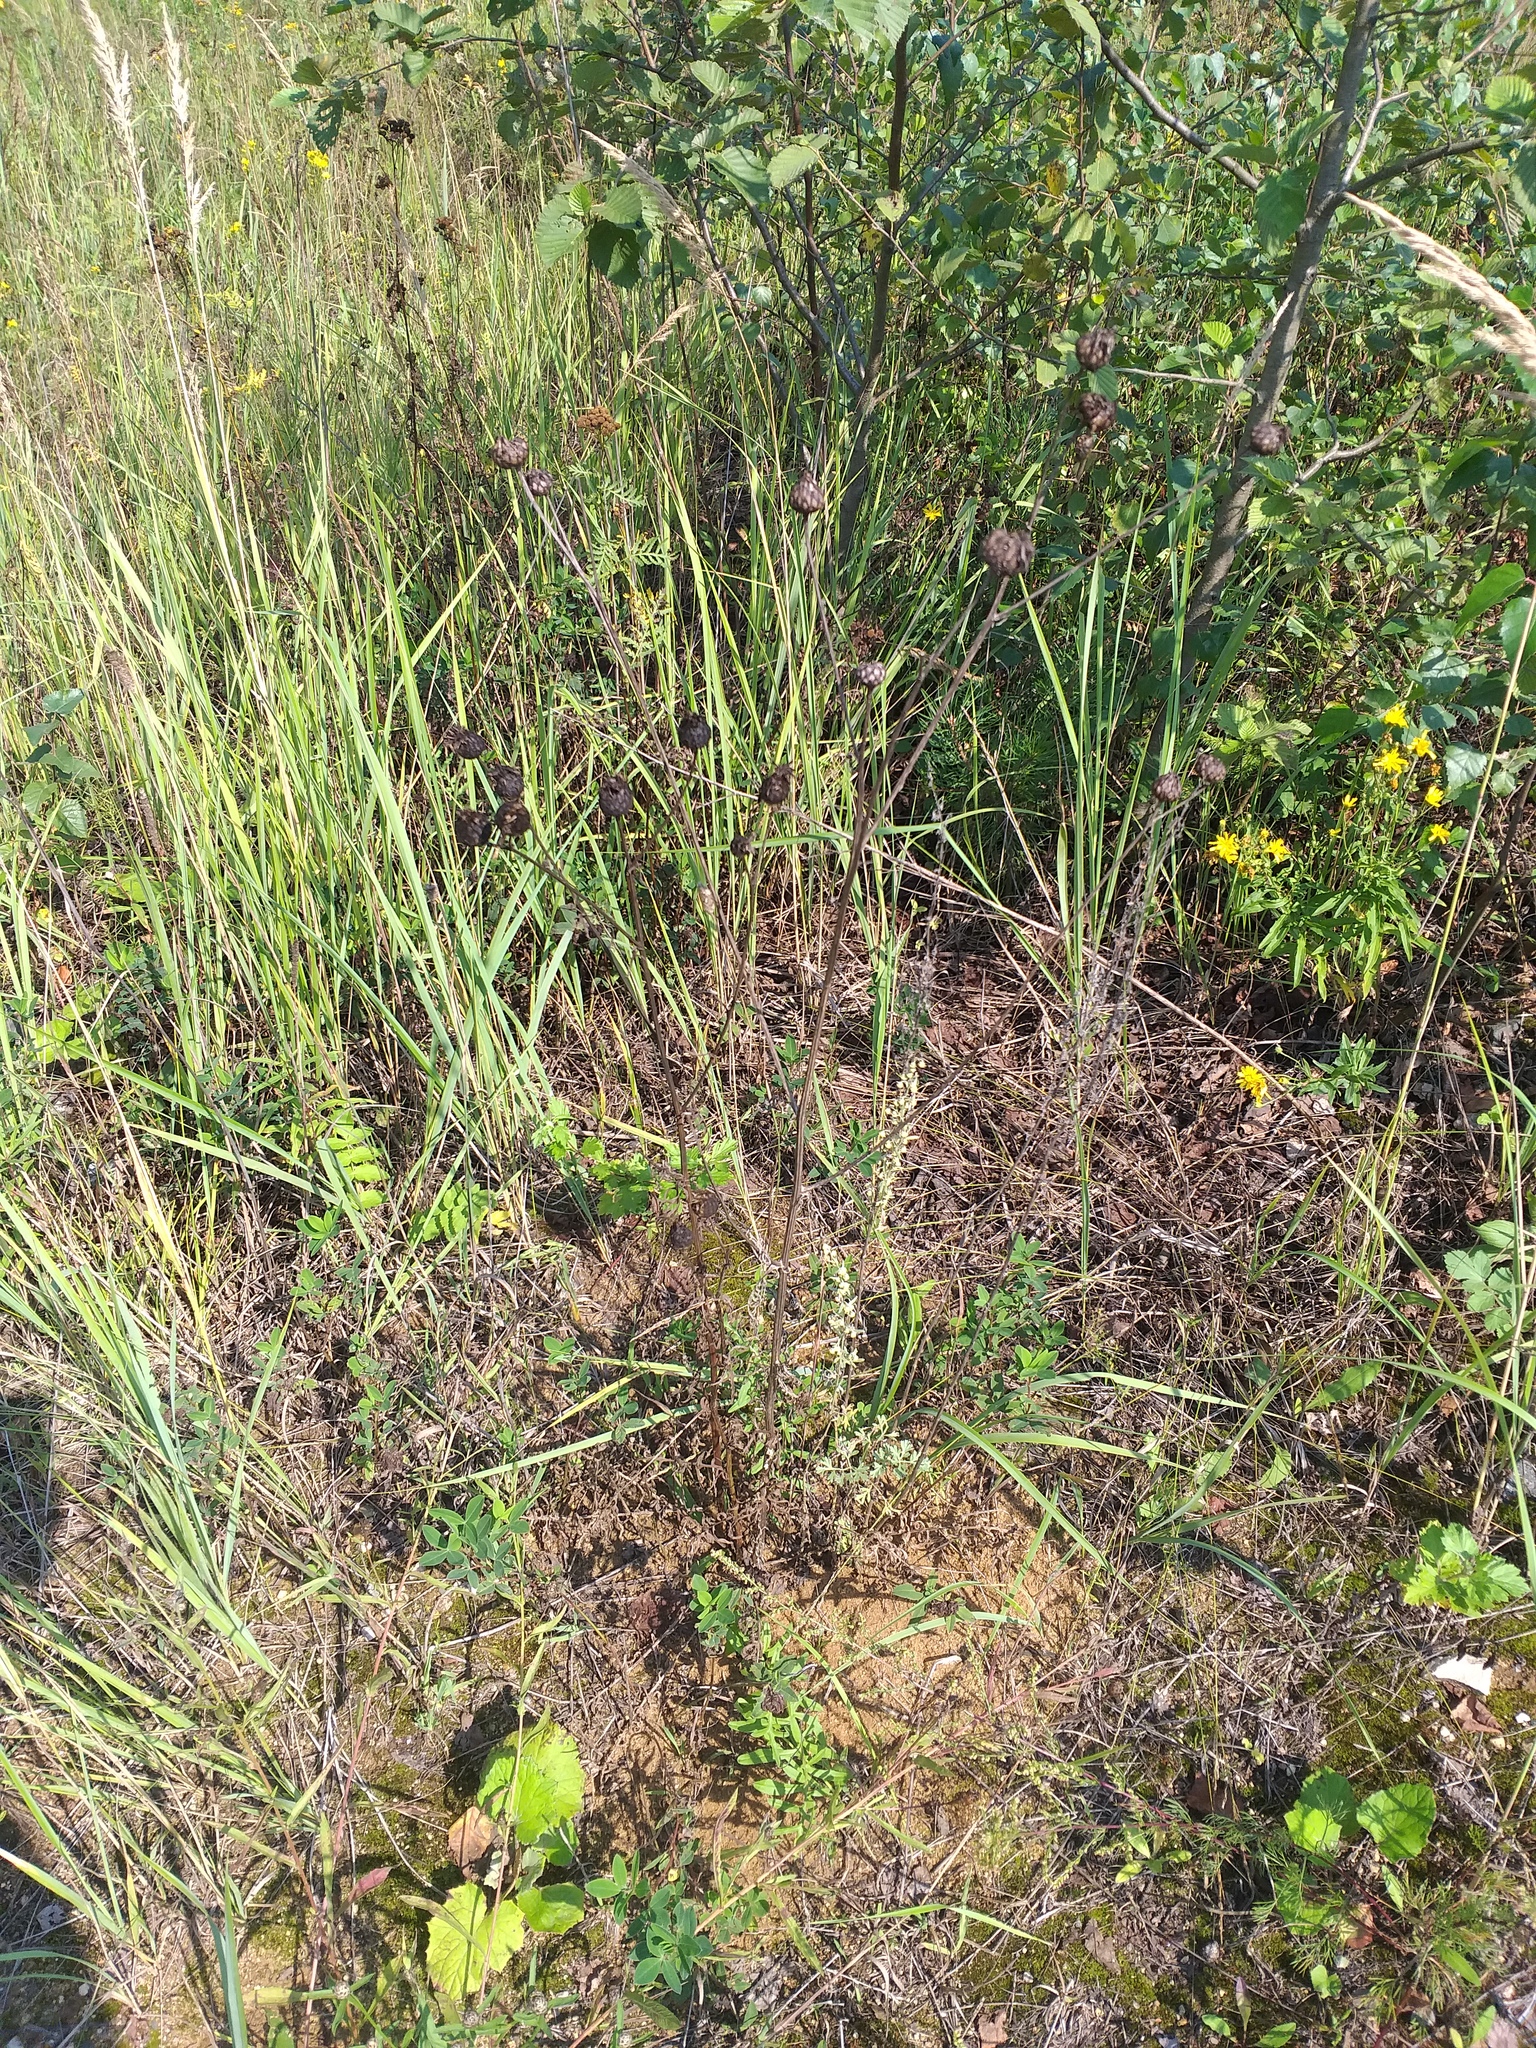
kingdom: Plantae
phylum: Tracheophyta
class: Magnoliopsida
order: Asterales
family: Asteraceae
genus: Centaurea
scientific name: Centaurea scabiosa
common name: Greater knapweed
